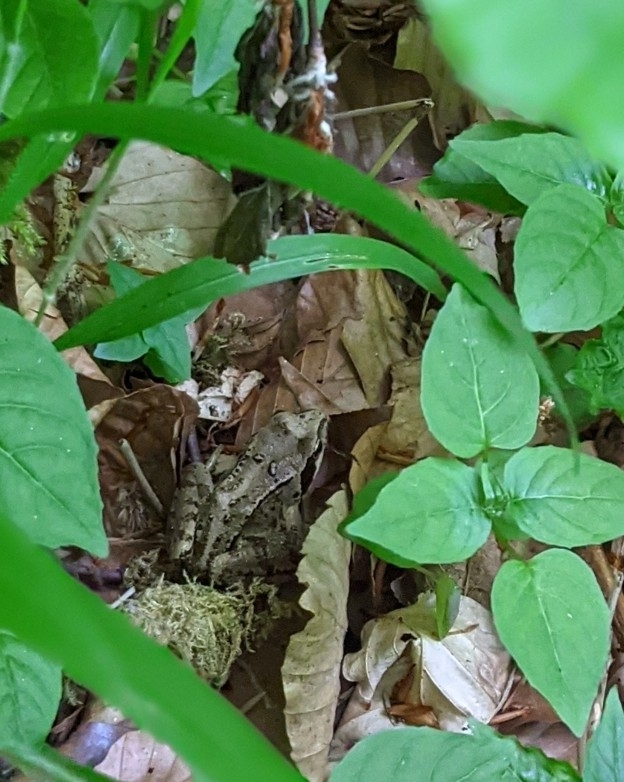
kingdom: Animalia
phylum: Chordata
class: Amphibia
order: Anura
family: Ranidae
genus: Rana
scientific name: Rana temporaria
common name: Common frog
